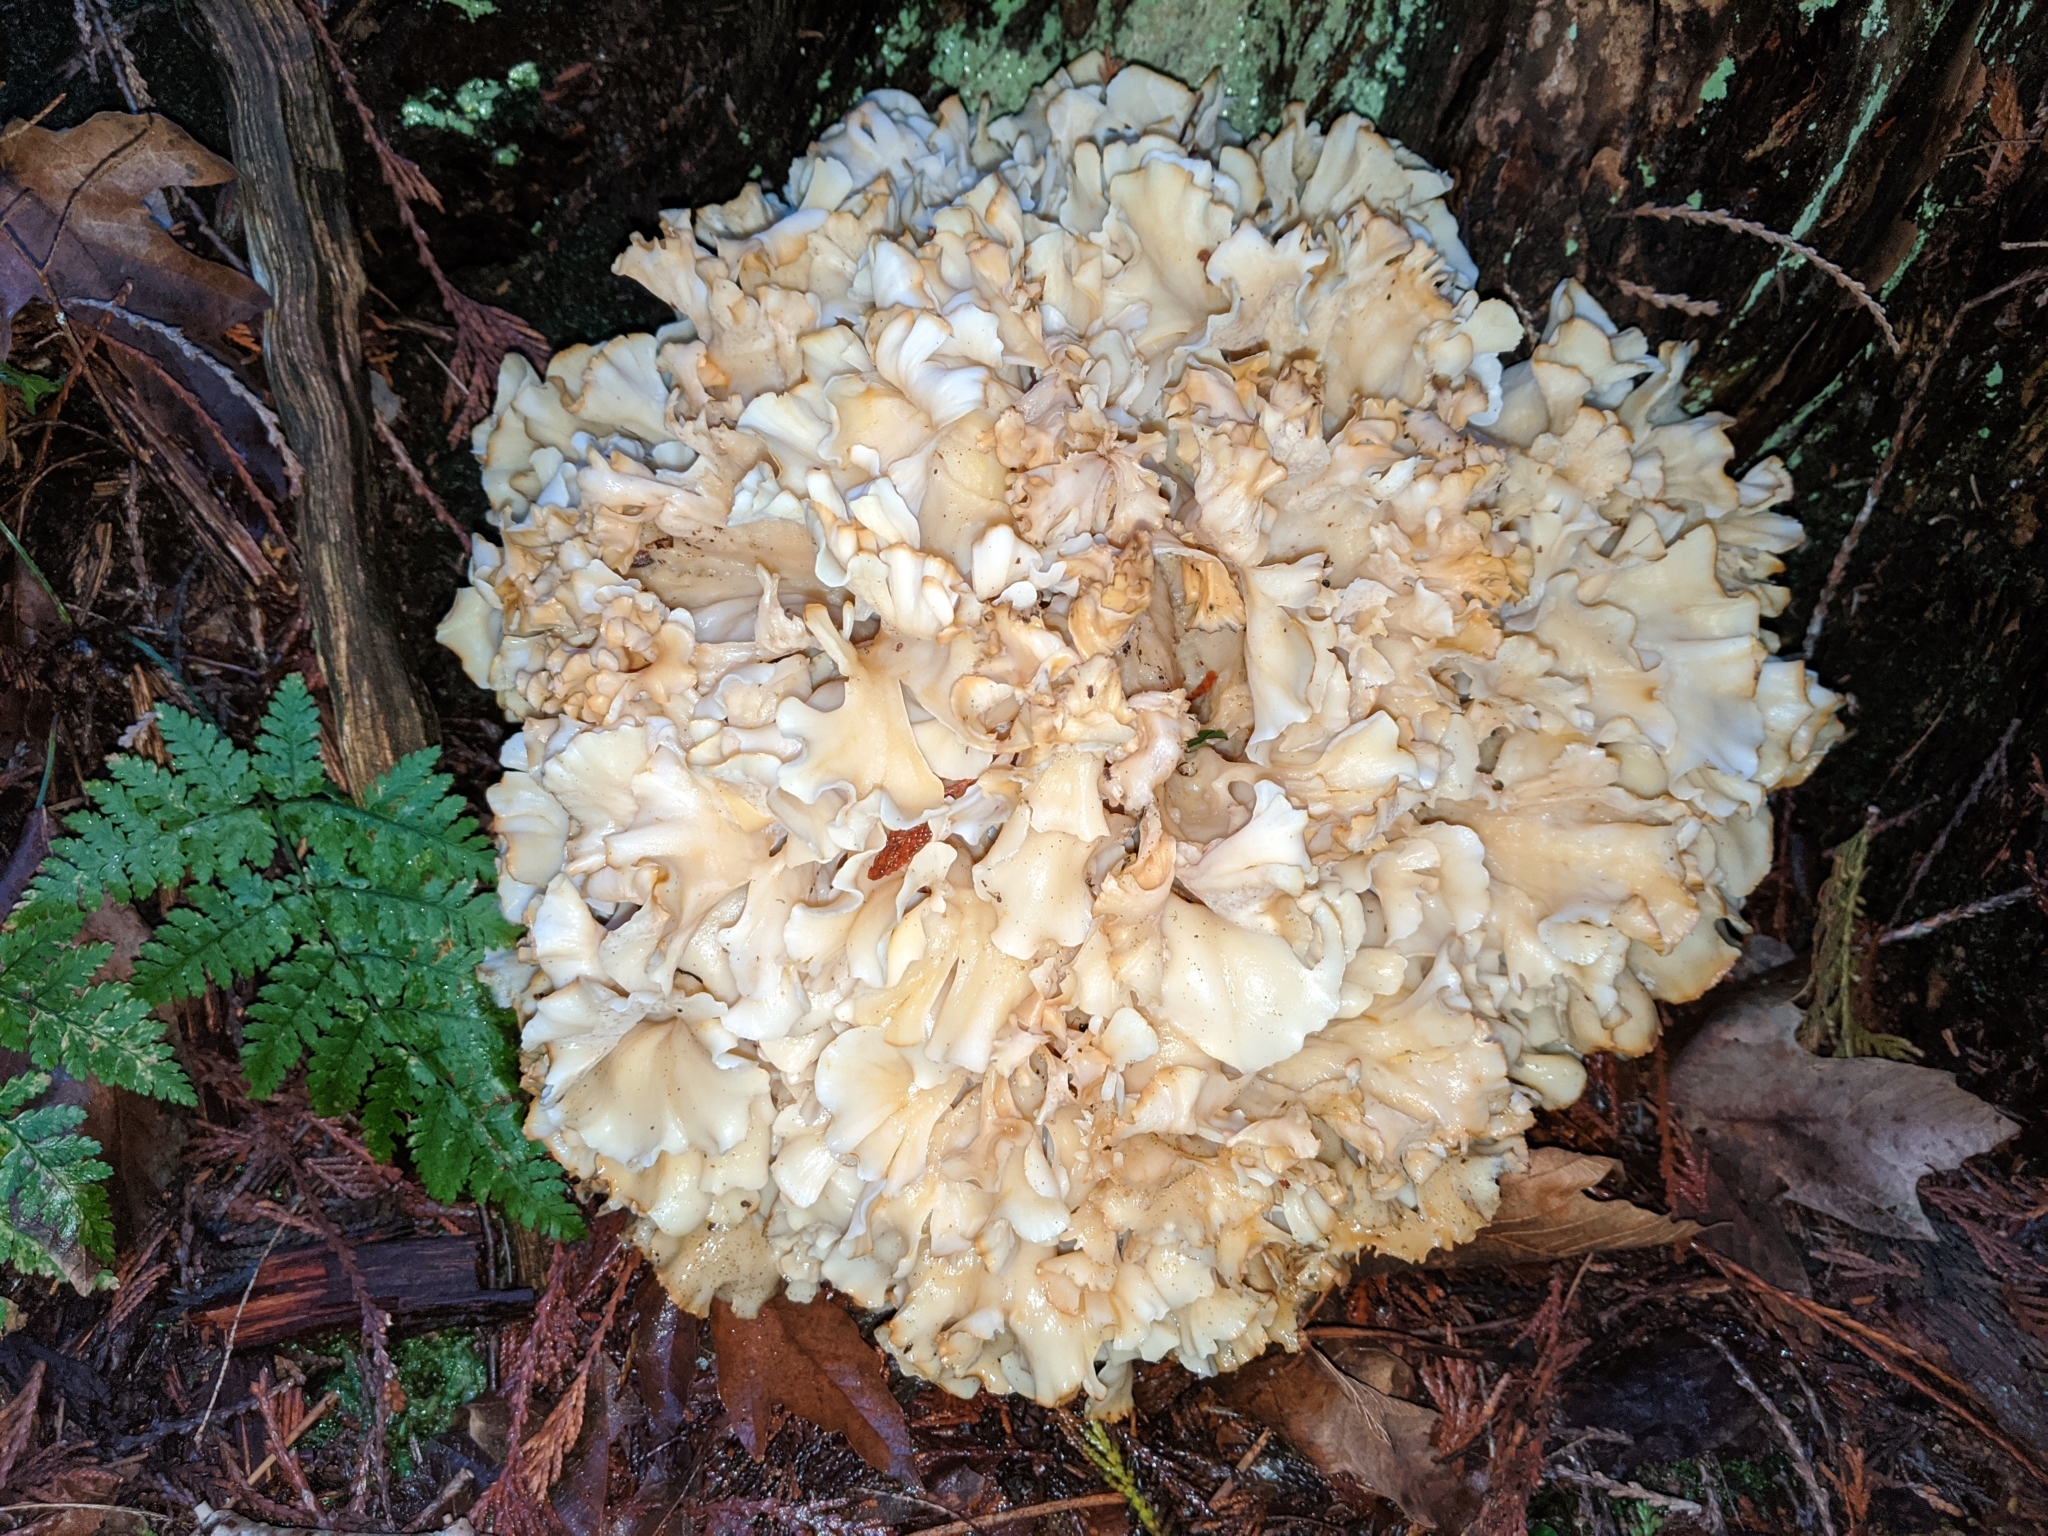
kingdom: Fungi
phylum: Basidiomycota
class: Agaricomycetes
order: Polyporales
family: Sparassidaceae
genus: Sparassis
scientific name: Sparassis radicata
